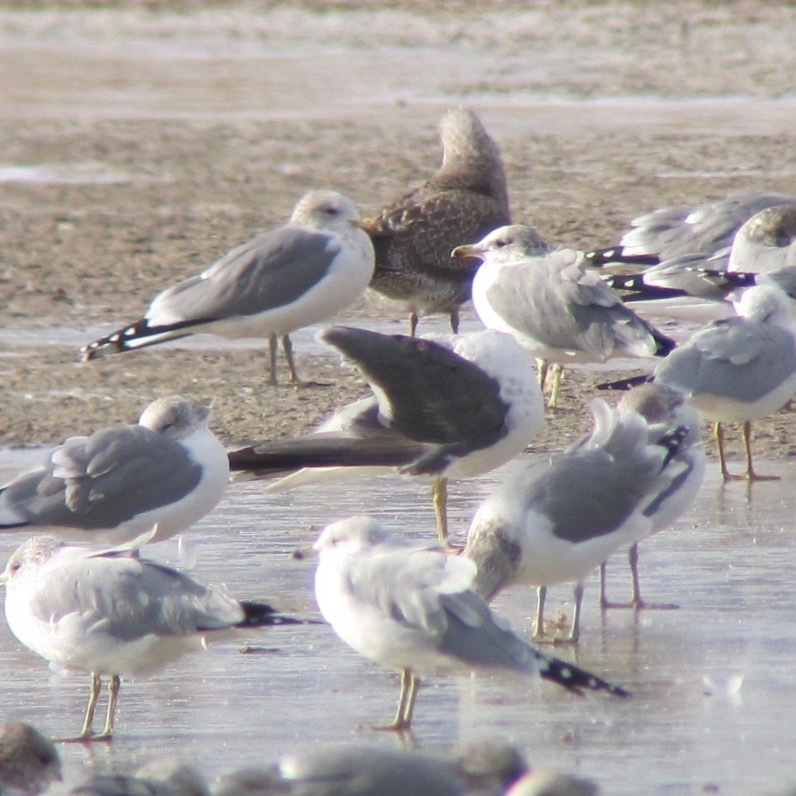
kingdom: Animalia
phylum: Chordata
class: Aves
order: Charadriiformes
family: Laridae
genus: Larus
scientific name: Larus fuscus
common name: Lesser black-backed gull
